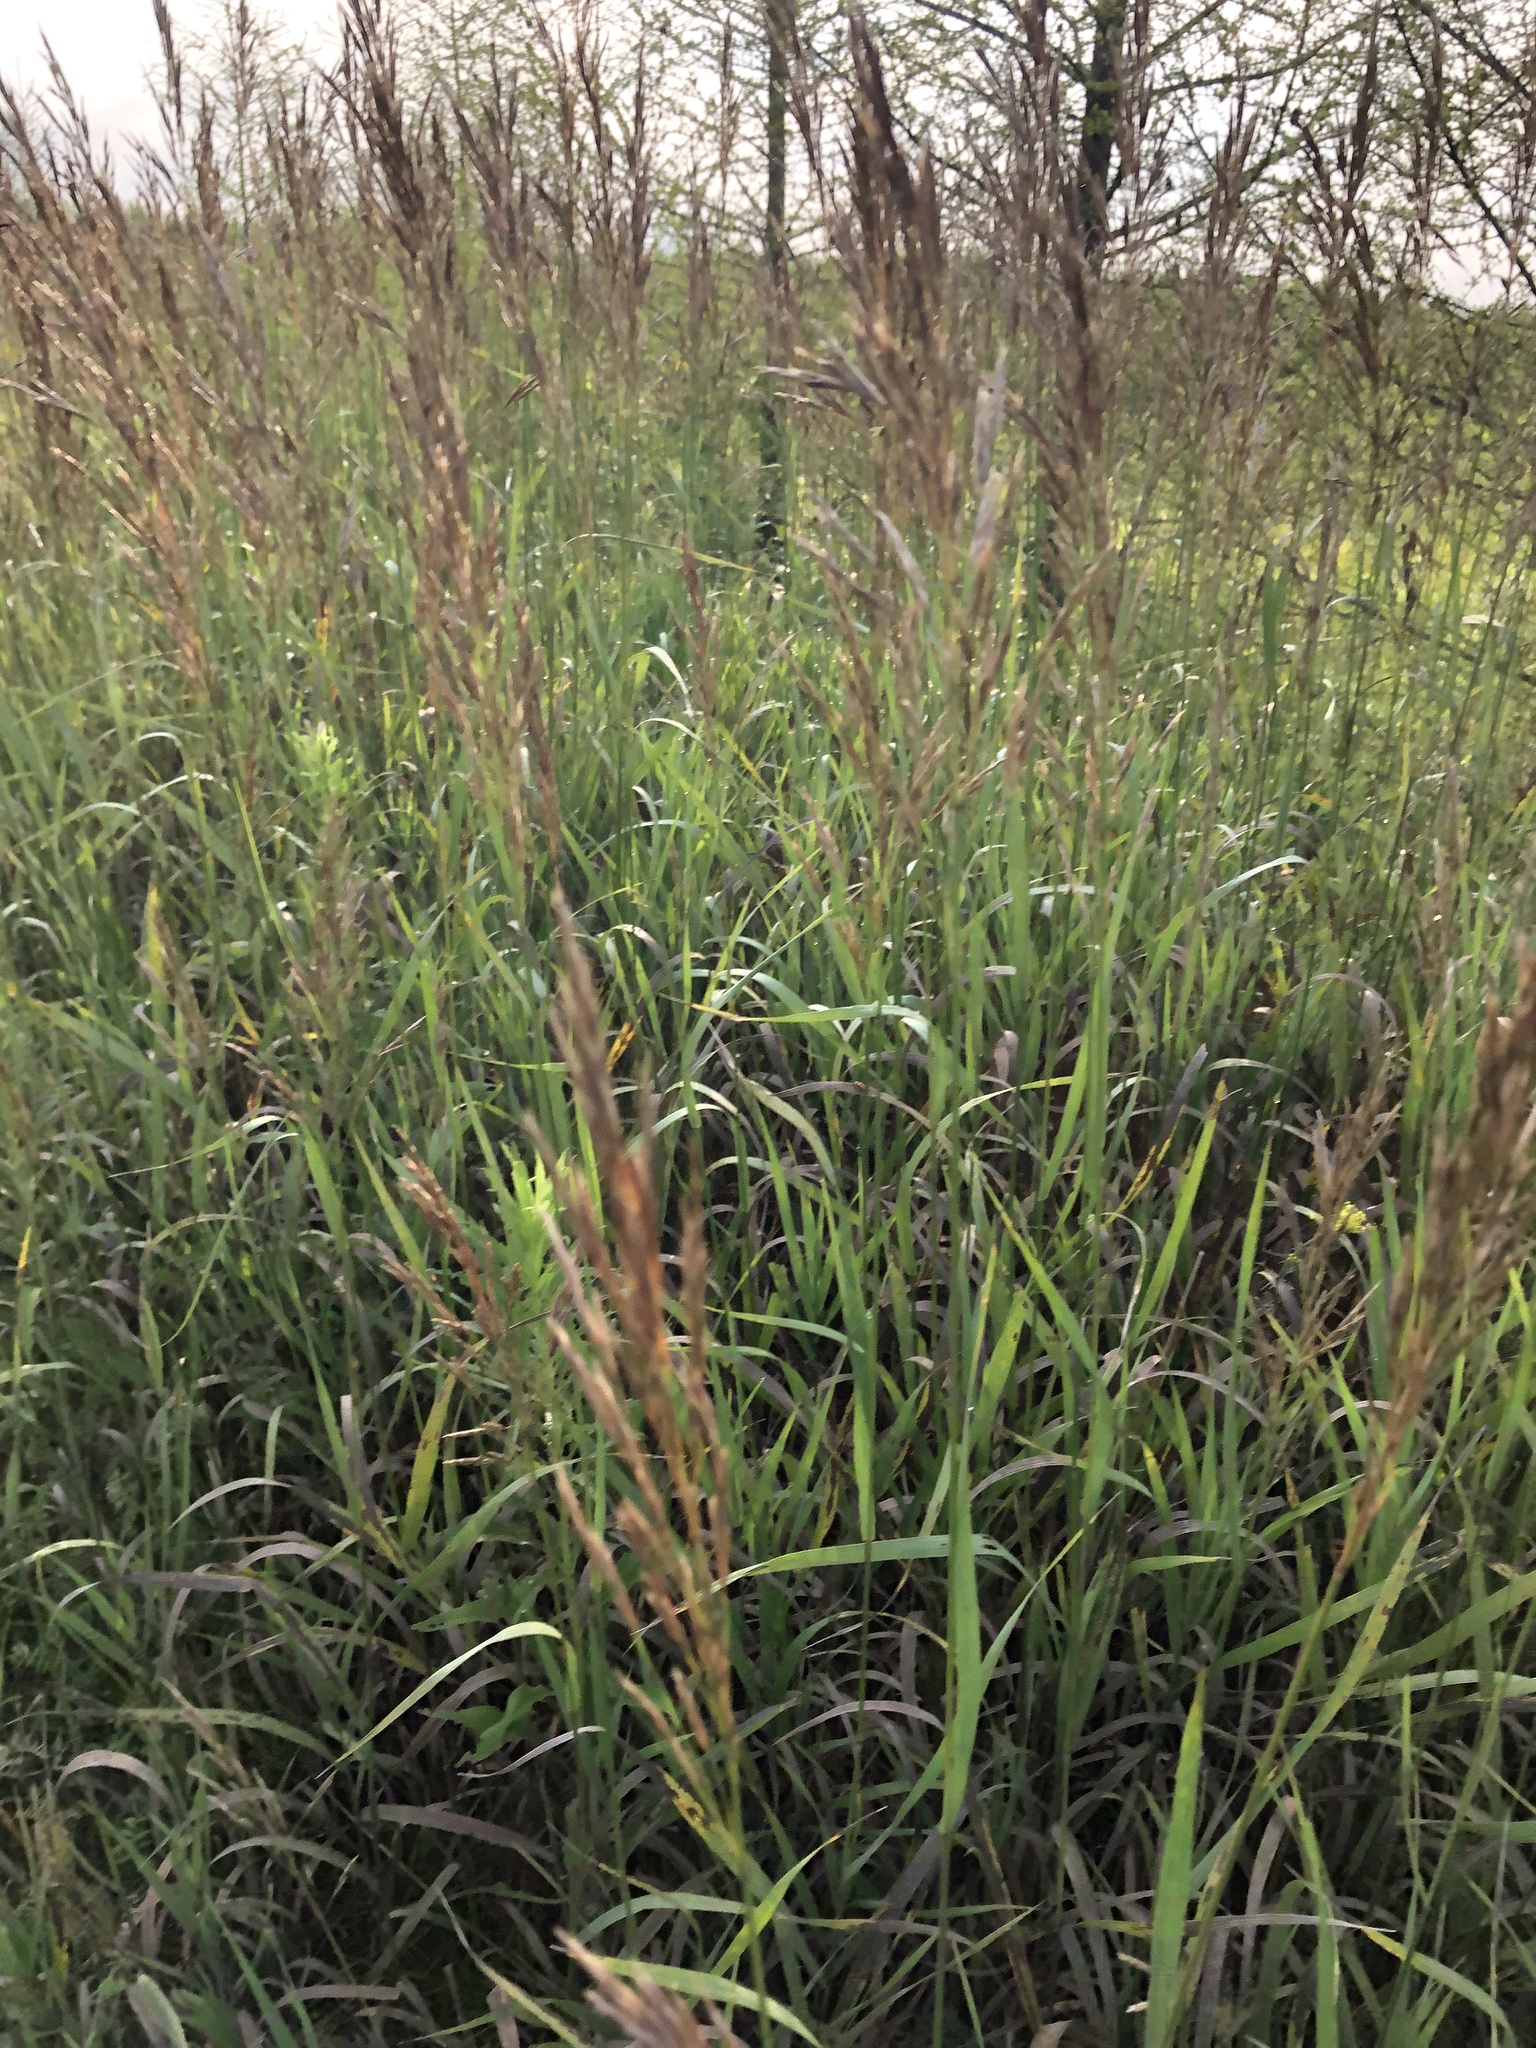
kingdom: Plantae
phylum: Tracheophyta
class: Liliopsida
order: Poales
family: Poaceae
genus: Bromus
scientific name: Bromus inermis
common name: Smooth brome
